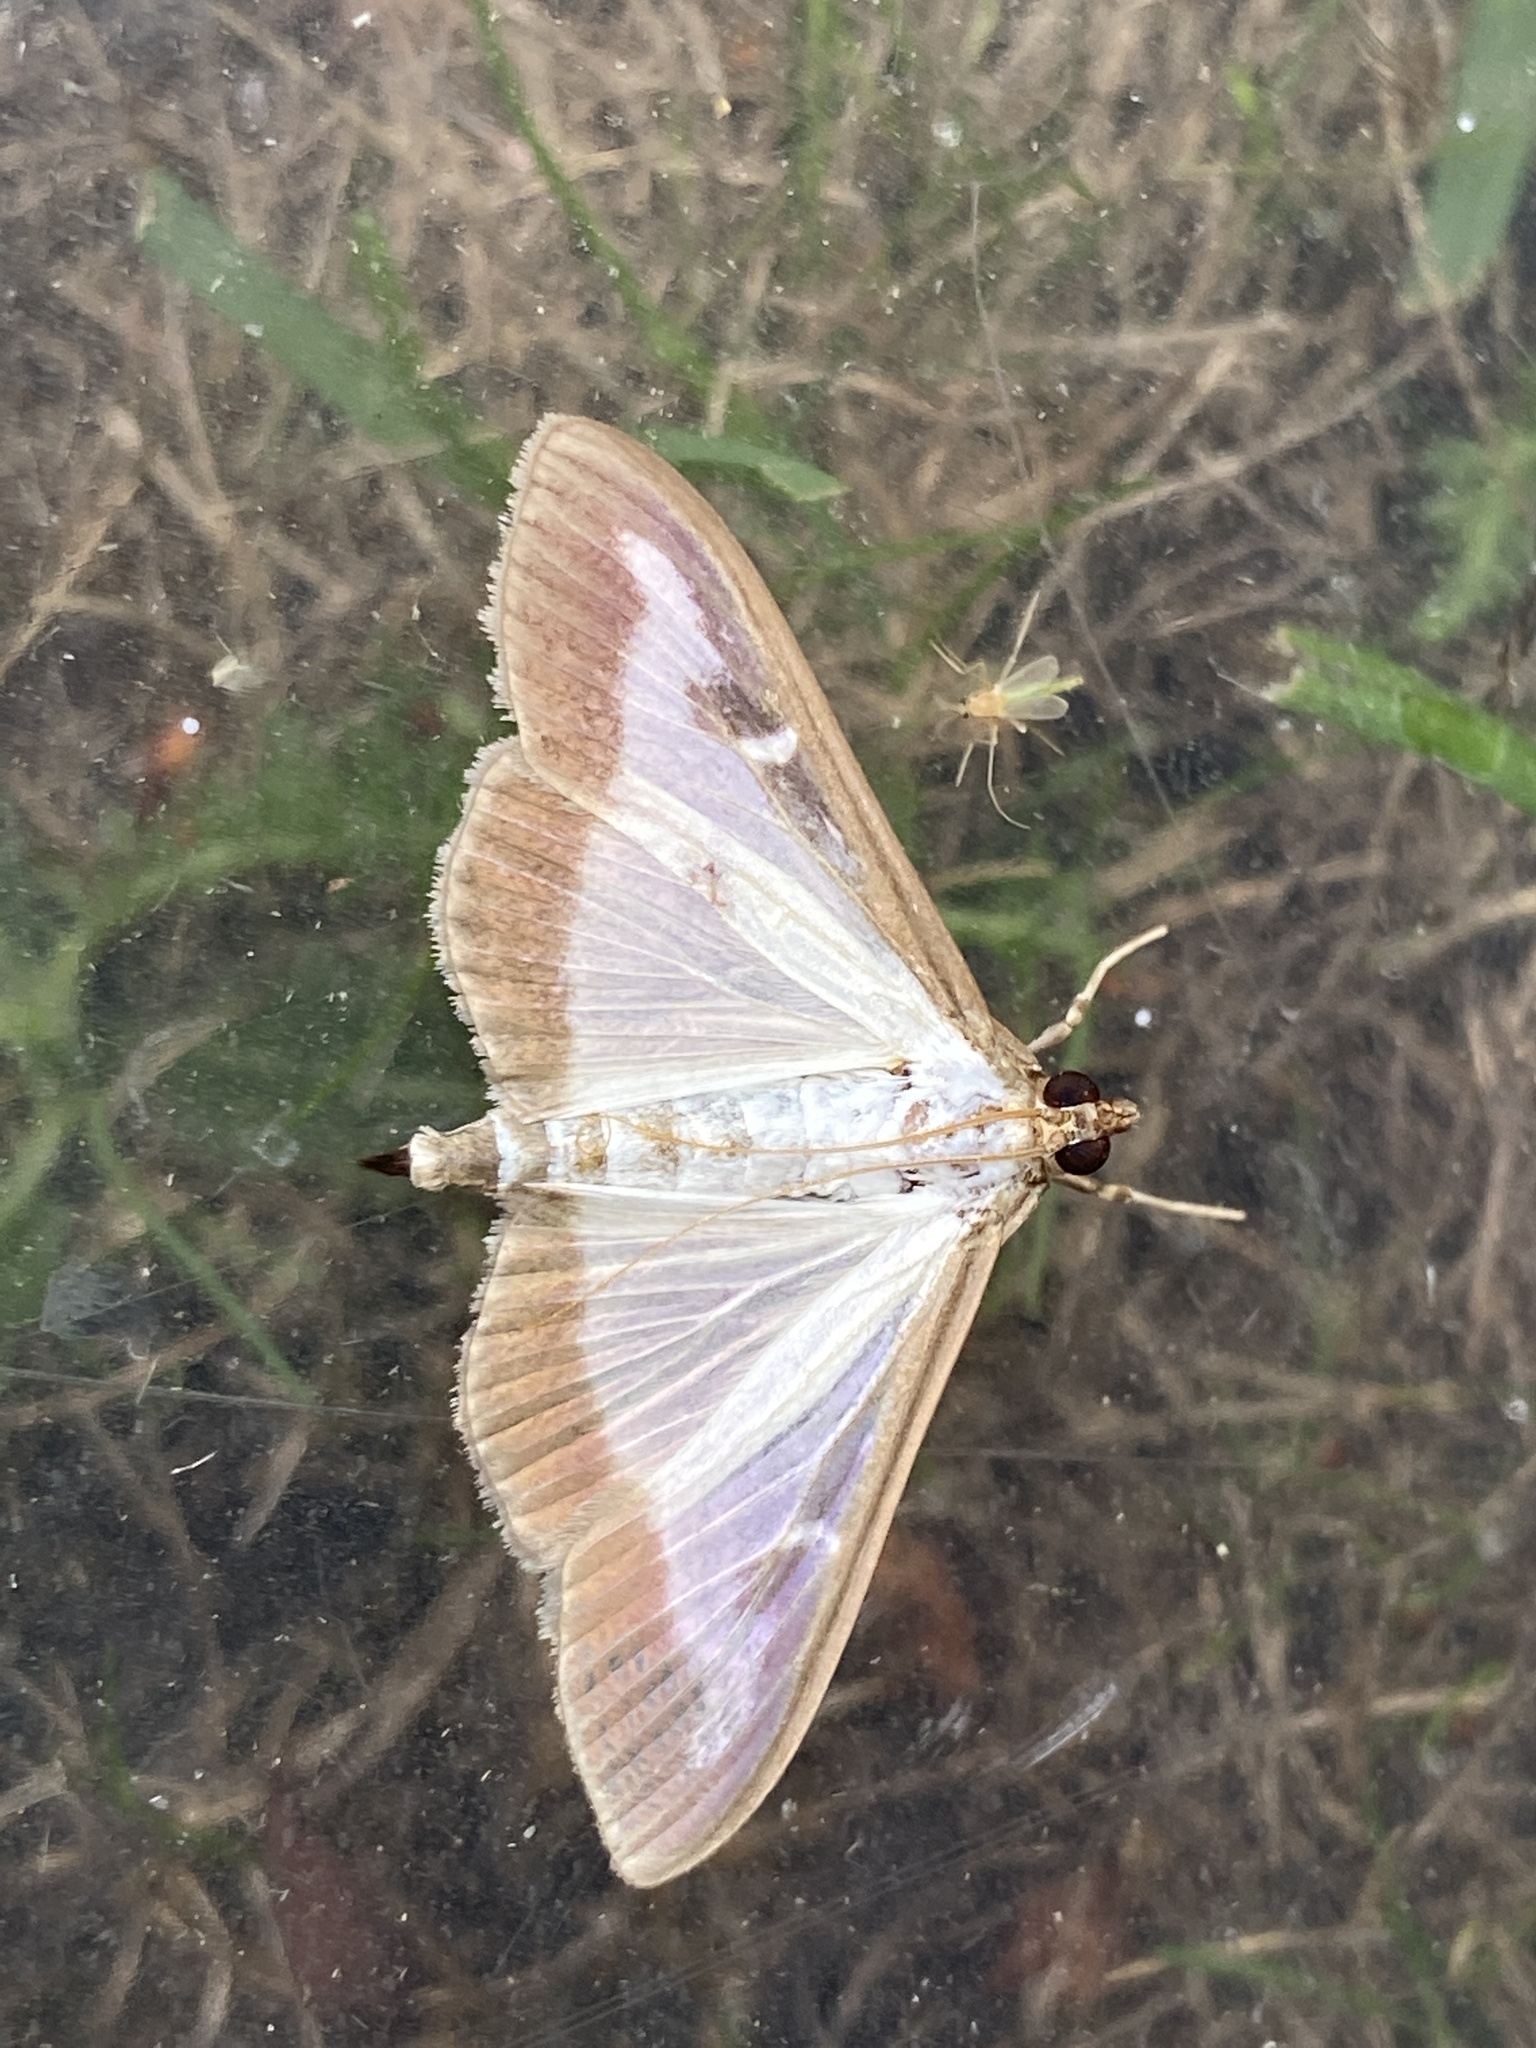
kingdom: Animalia
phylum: Arthropoda
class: Insecta
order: Lepidoptera
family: Crambidae
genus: Cydalima
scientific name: Cydalima perspectalis
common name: Box tree moth
